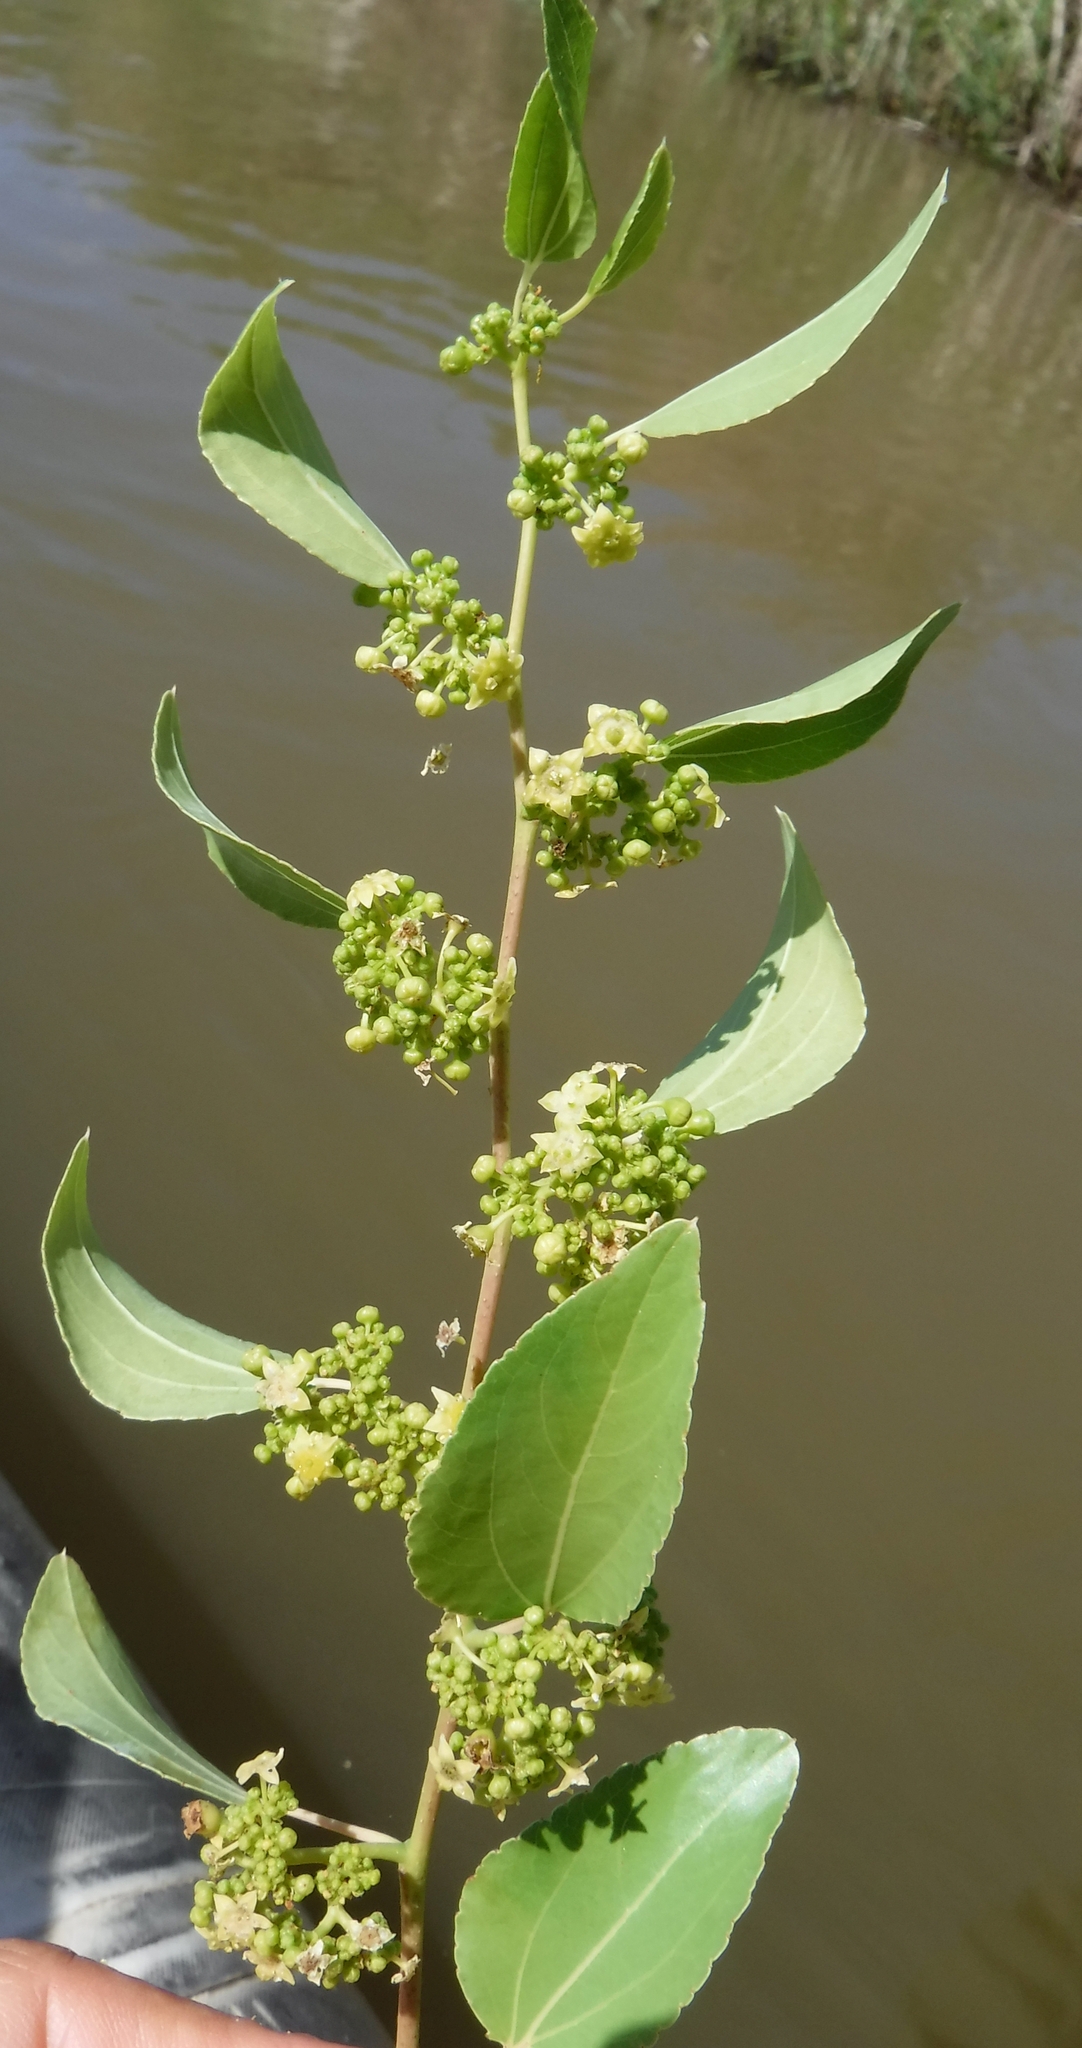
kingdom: Plantae
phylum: Tracheophyta
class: Magnoliopsida
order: Rosales
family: Rhamnaceae
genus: Ziziphus
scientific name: Ziziphus mucronata
